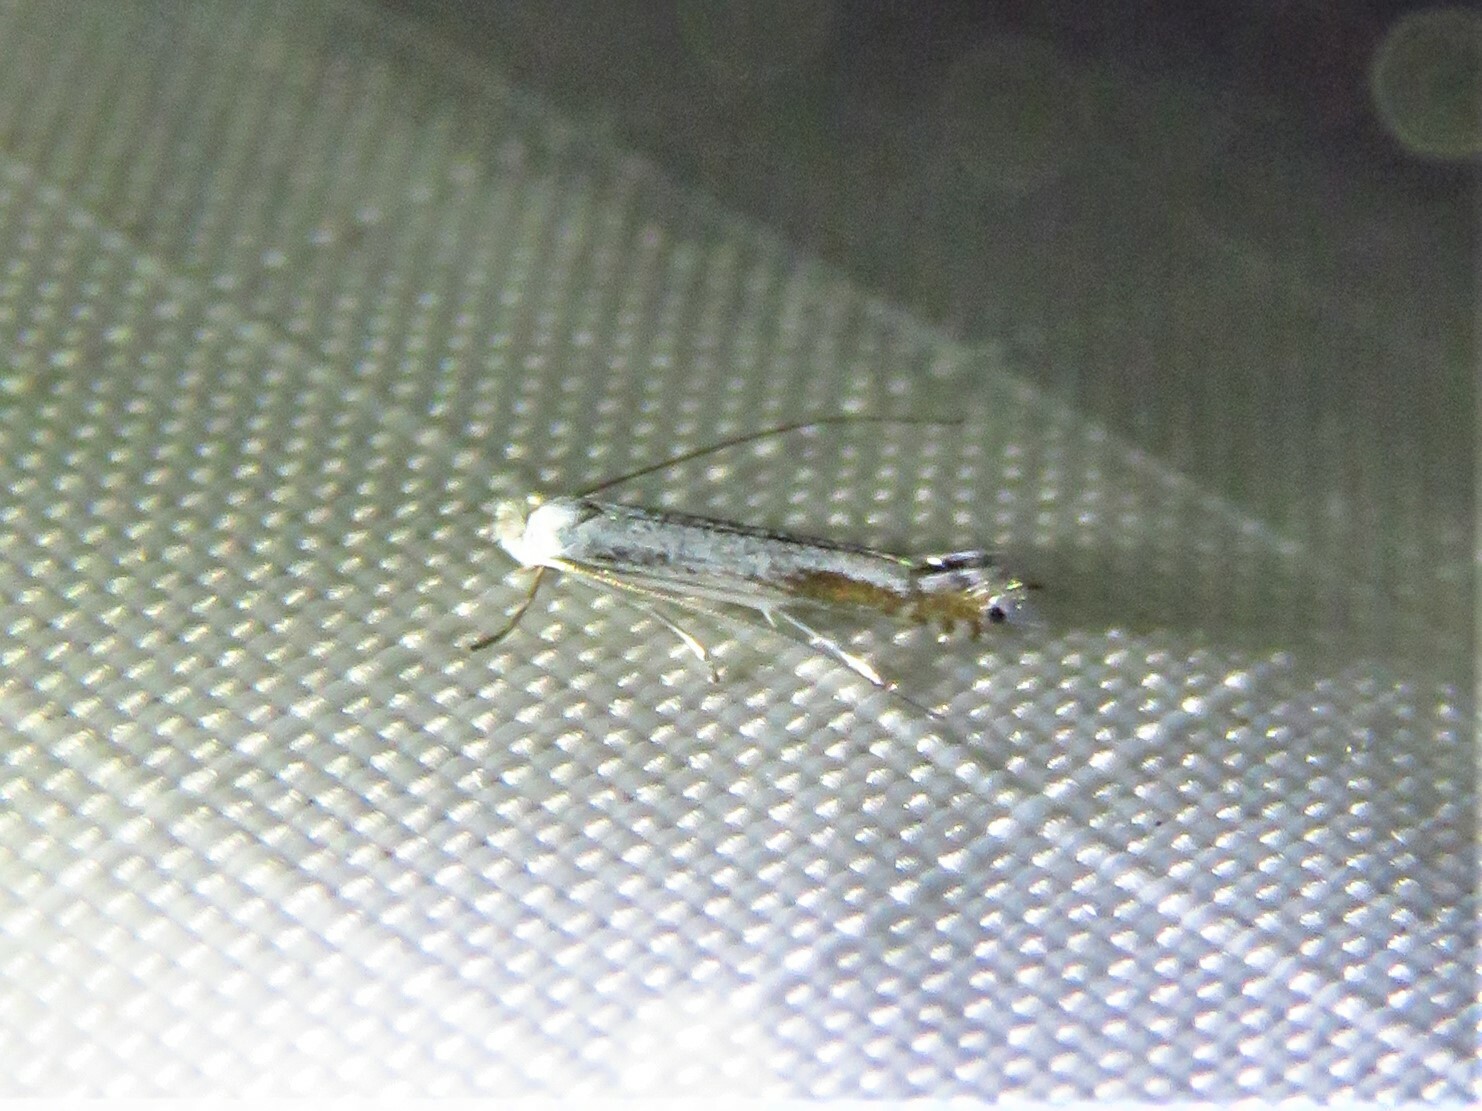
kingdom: Animalia
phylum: Arthropoda
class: Insecta
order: Lepidoptera
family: Lyonetiidae
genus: Lyonetia
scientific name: Lyonetia clerkella
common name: Apple leaf miner
